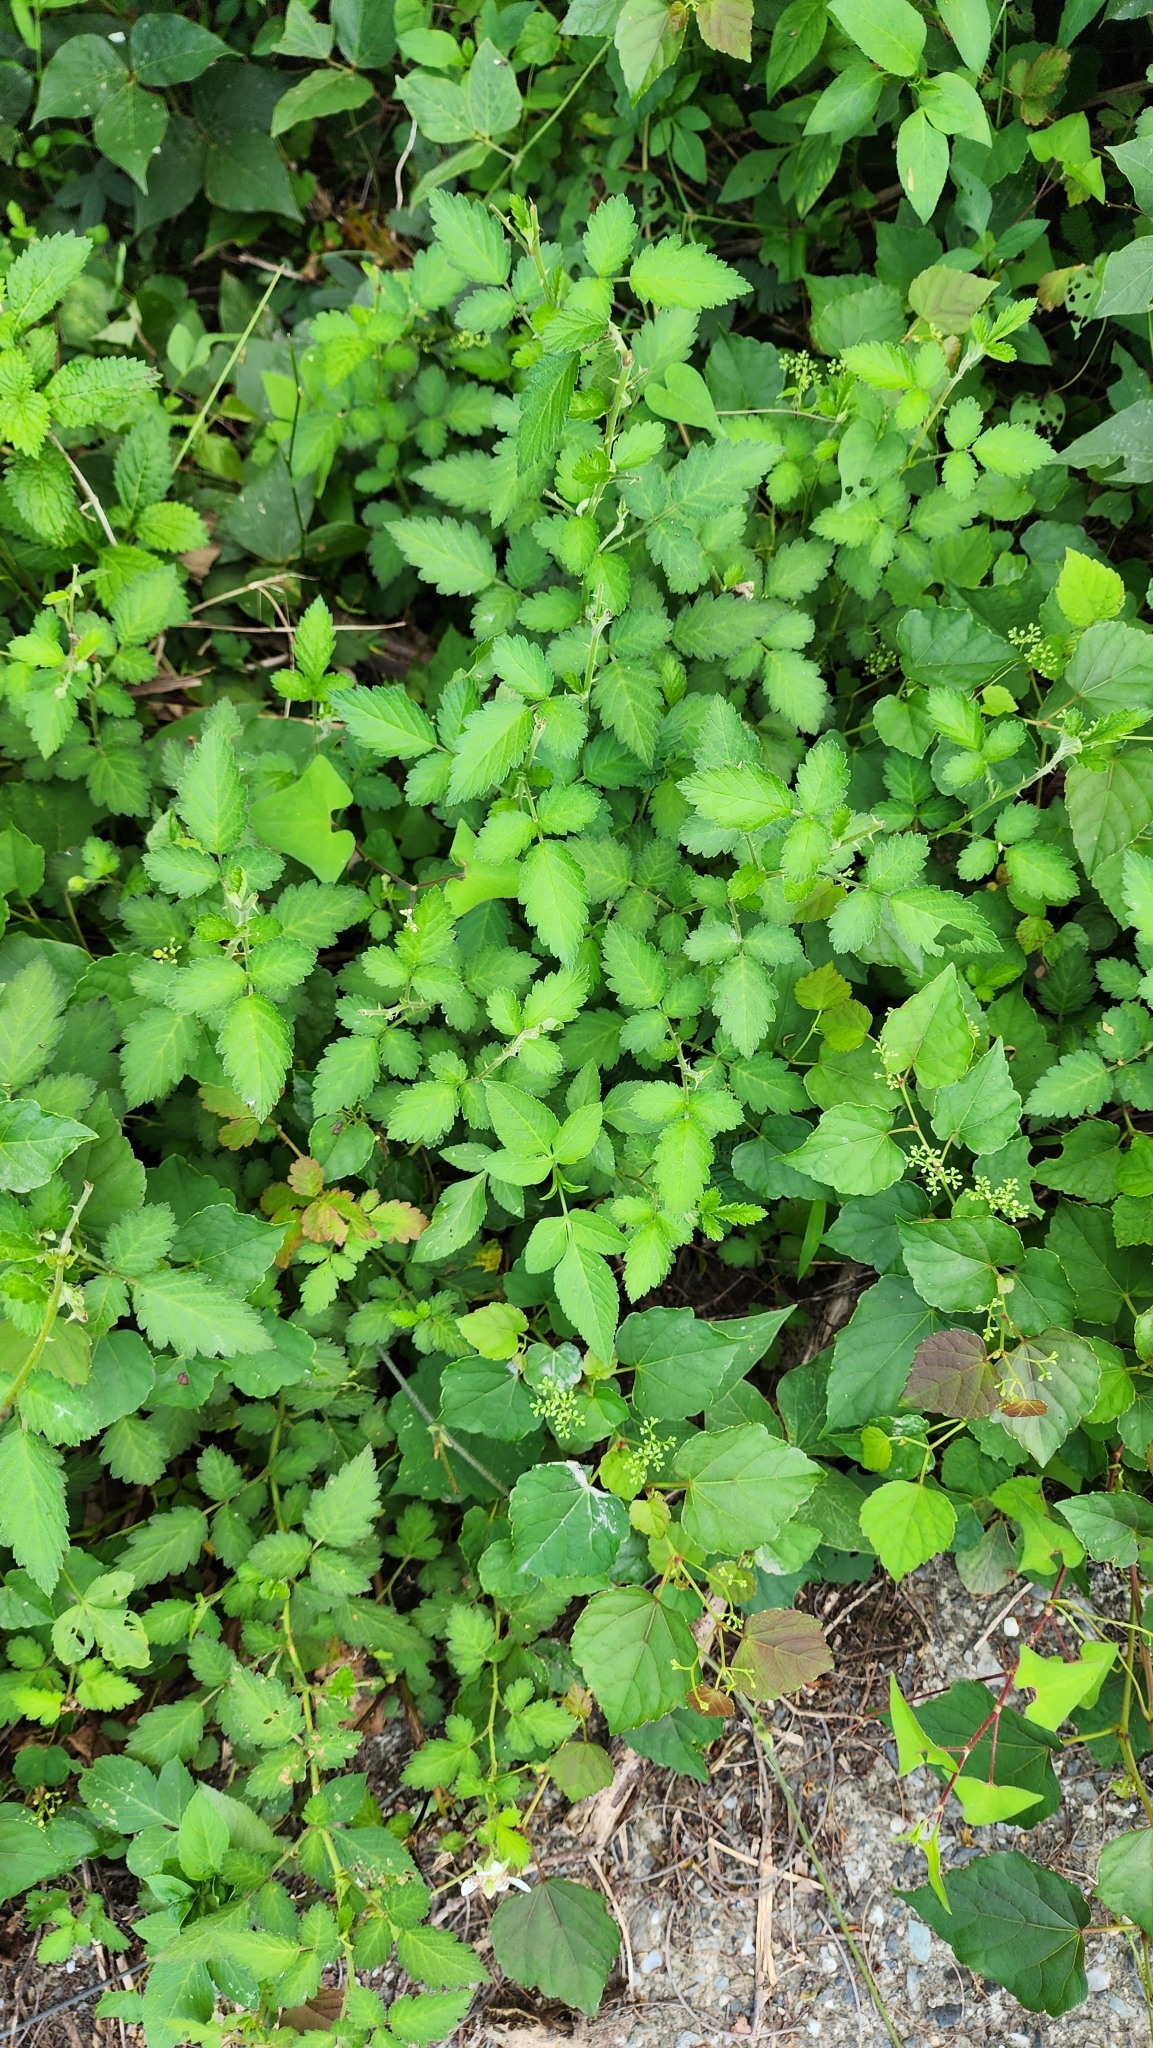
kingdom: Plantae
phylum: Tracheophyta
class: Magnoliopsida
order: Rosales
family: Rosaceae
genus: Rubus
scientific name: Rubus rosifolius
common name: Roseleaf raspberry
